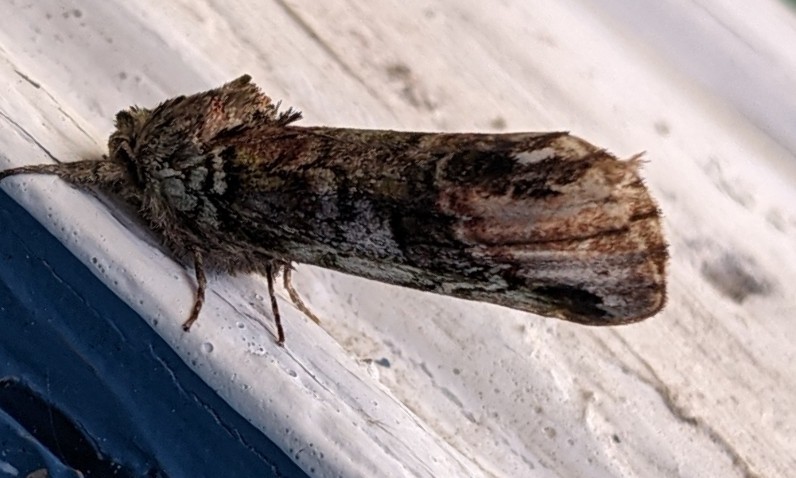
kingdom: Animalia
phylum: Arthropoda
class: Insecta
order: Lepidoptera
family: Notodontidae
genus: Schizura
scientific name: Schizura
